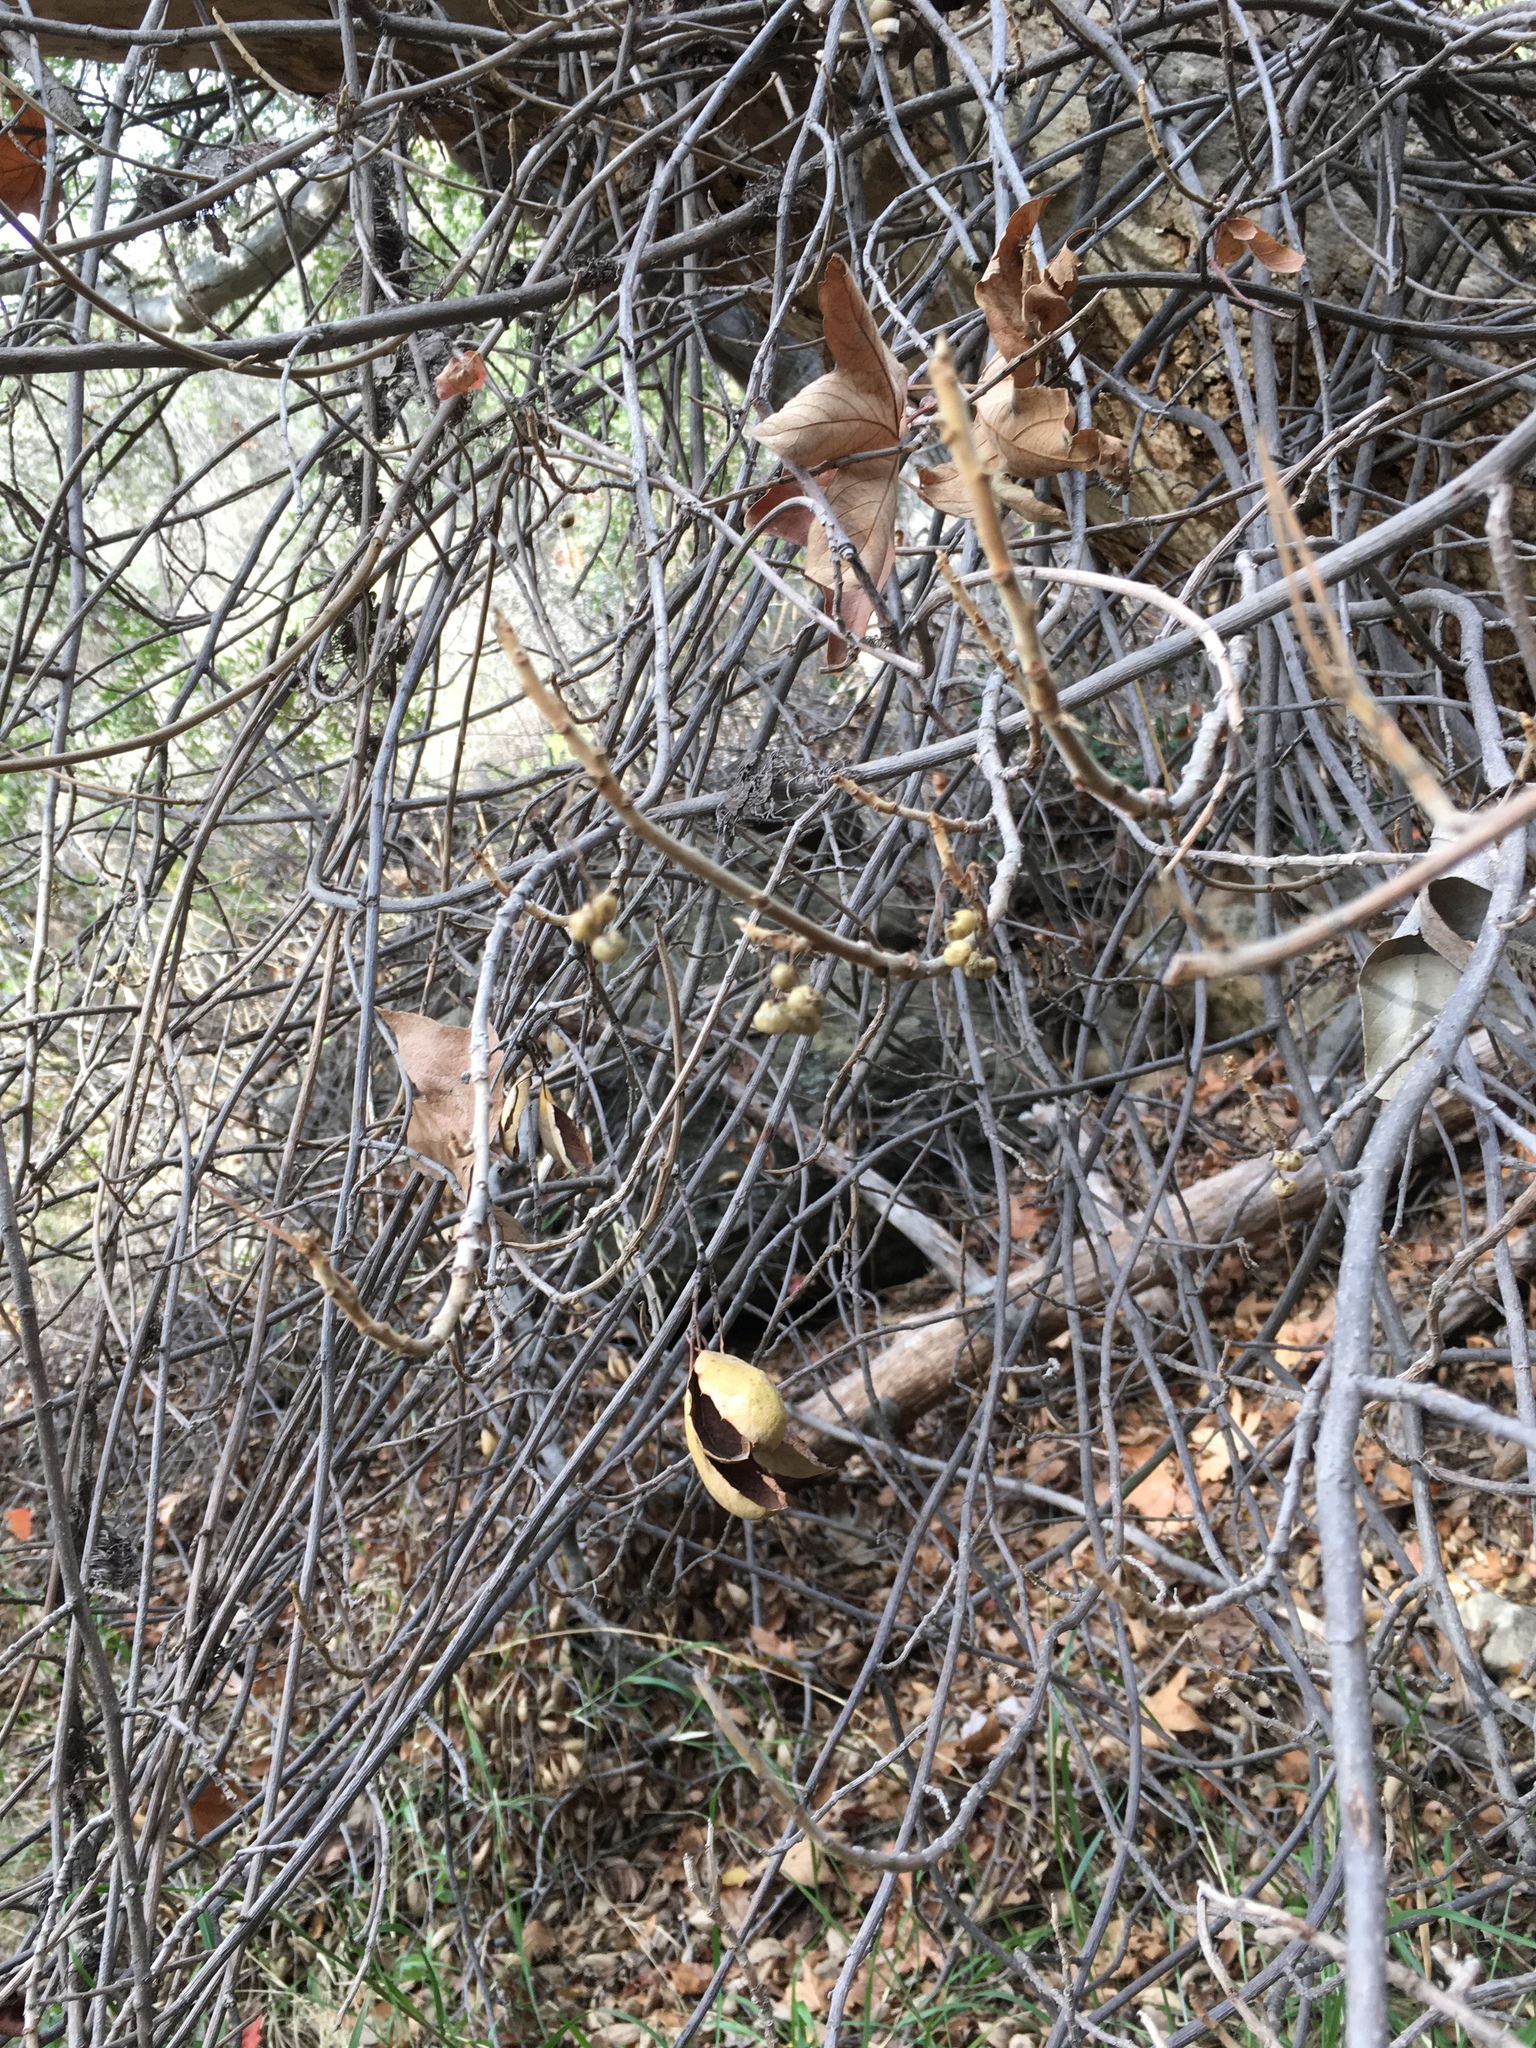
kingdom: Plantae
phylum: Tracheophyta
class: Magnoliopsida
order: Sapindales
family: Anacardiaceae
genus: Toxicodendron
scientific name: Toxicodendron diversilobum
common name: Pacific poison-oak
